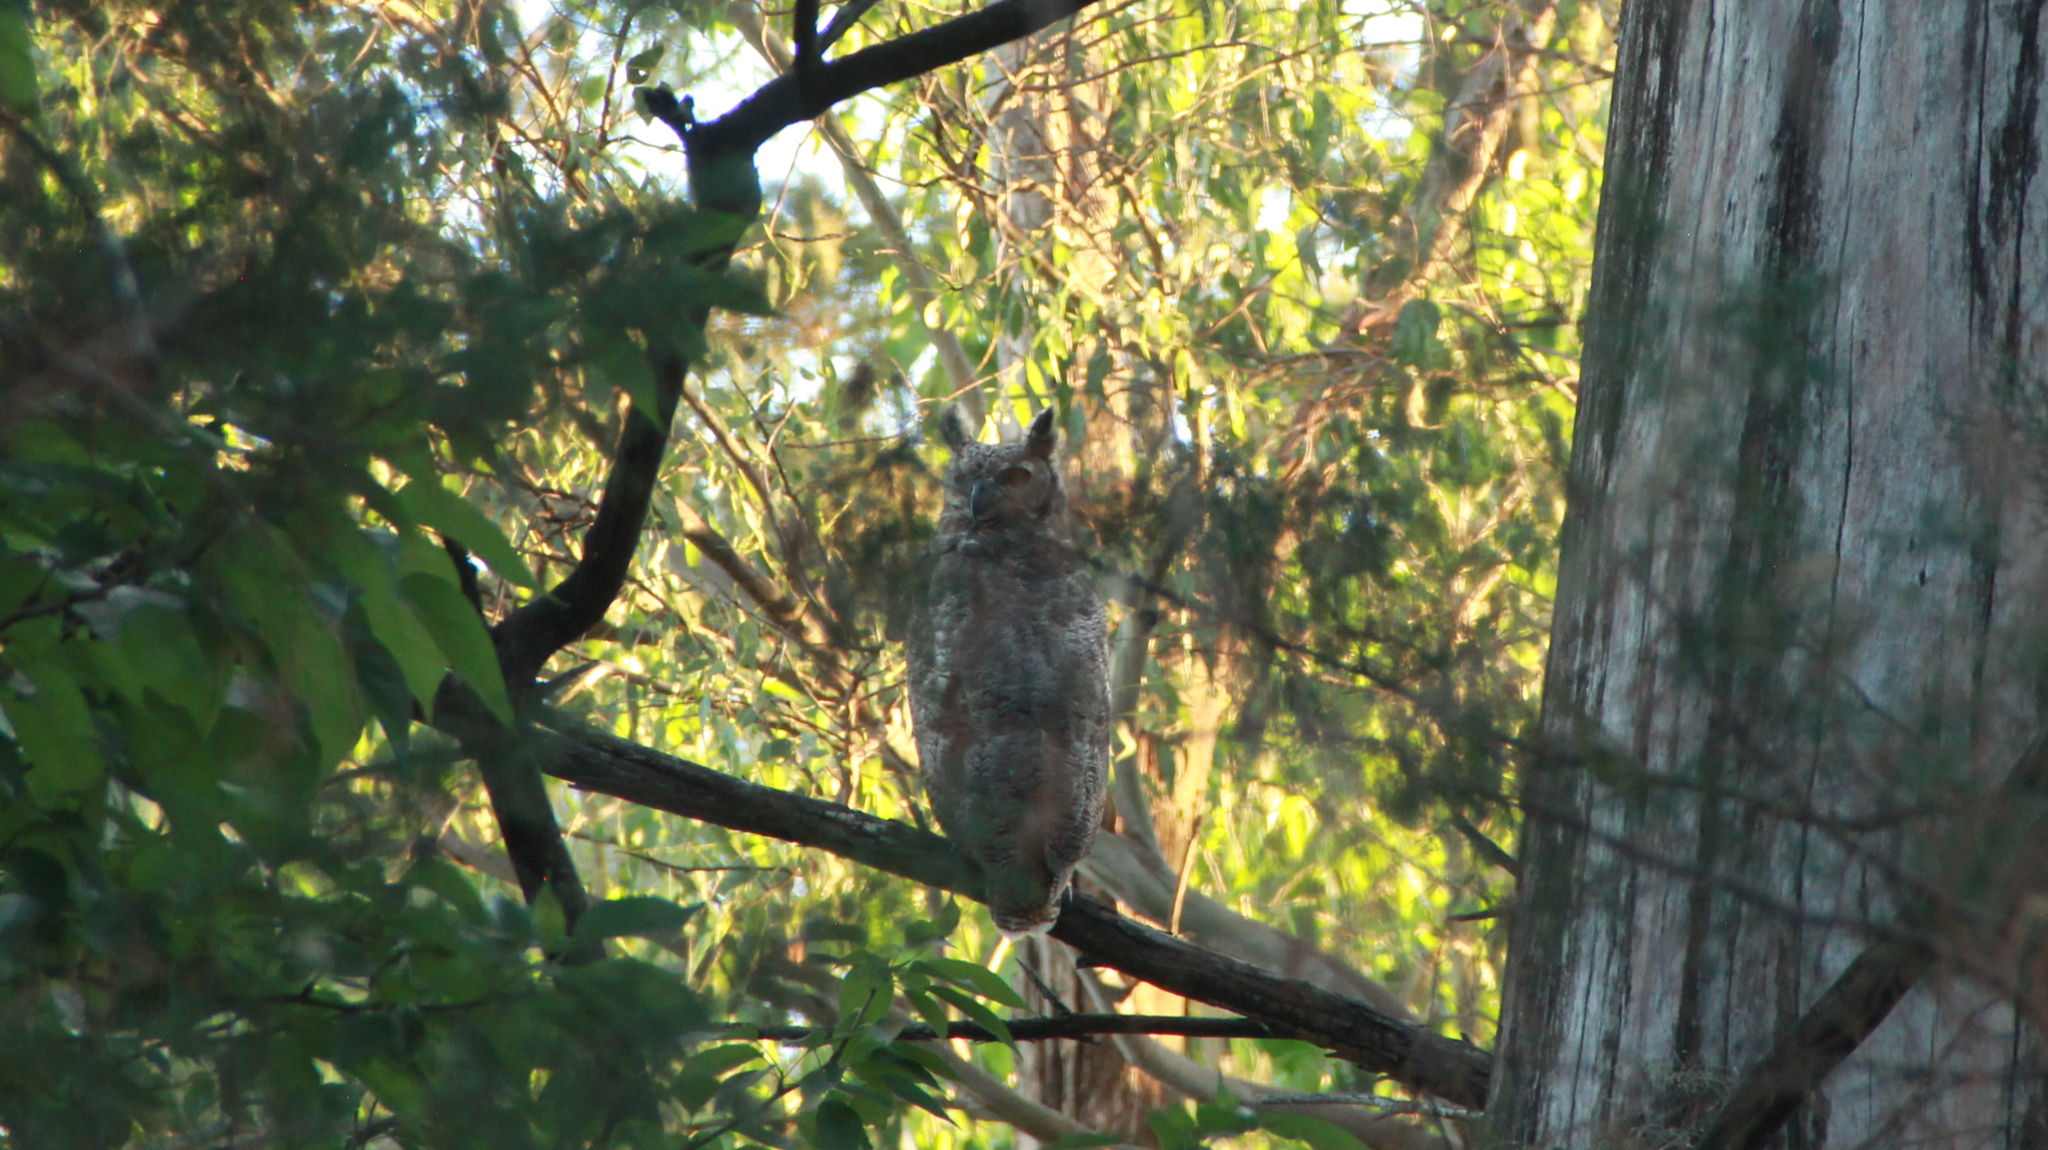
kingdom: Animalia
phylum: Chordata
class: Aves
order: Strigiformes
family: Strigidae
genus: Bubo
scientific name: Bubo virginianus
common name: Great horned owl
